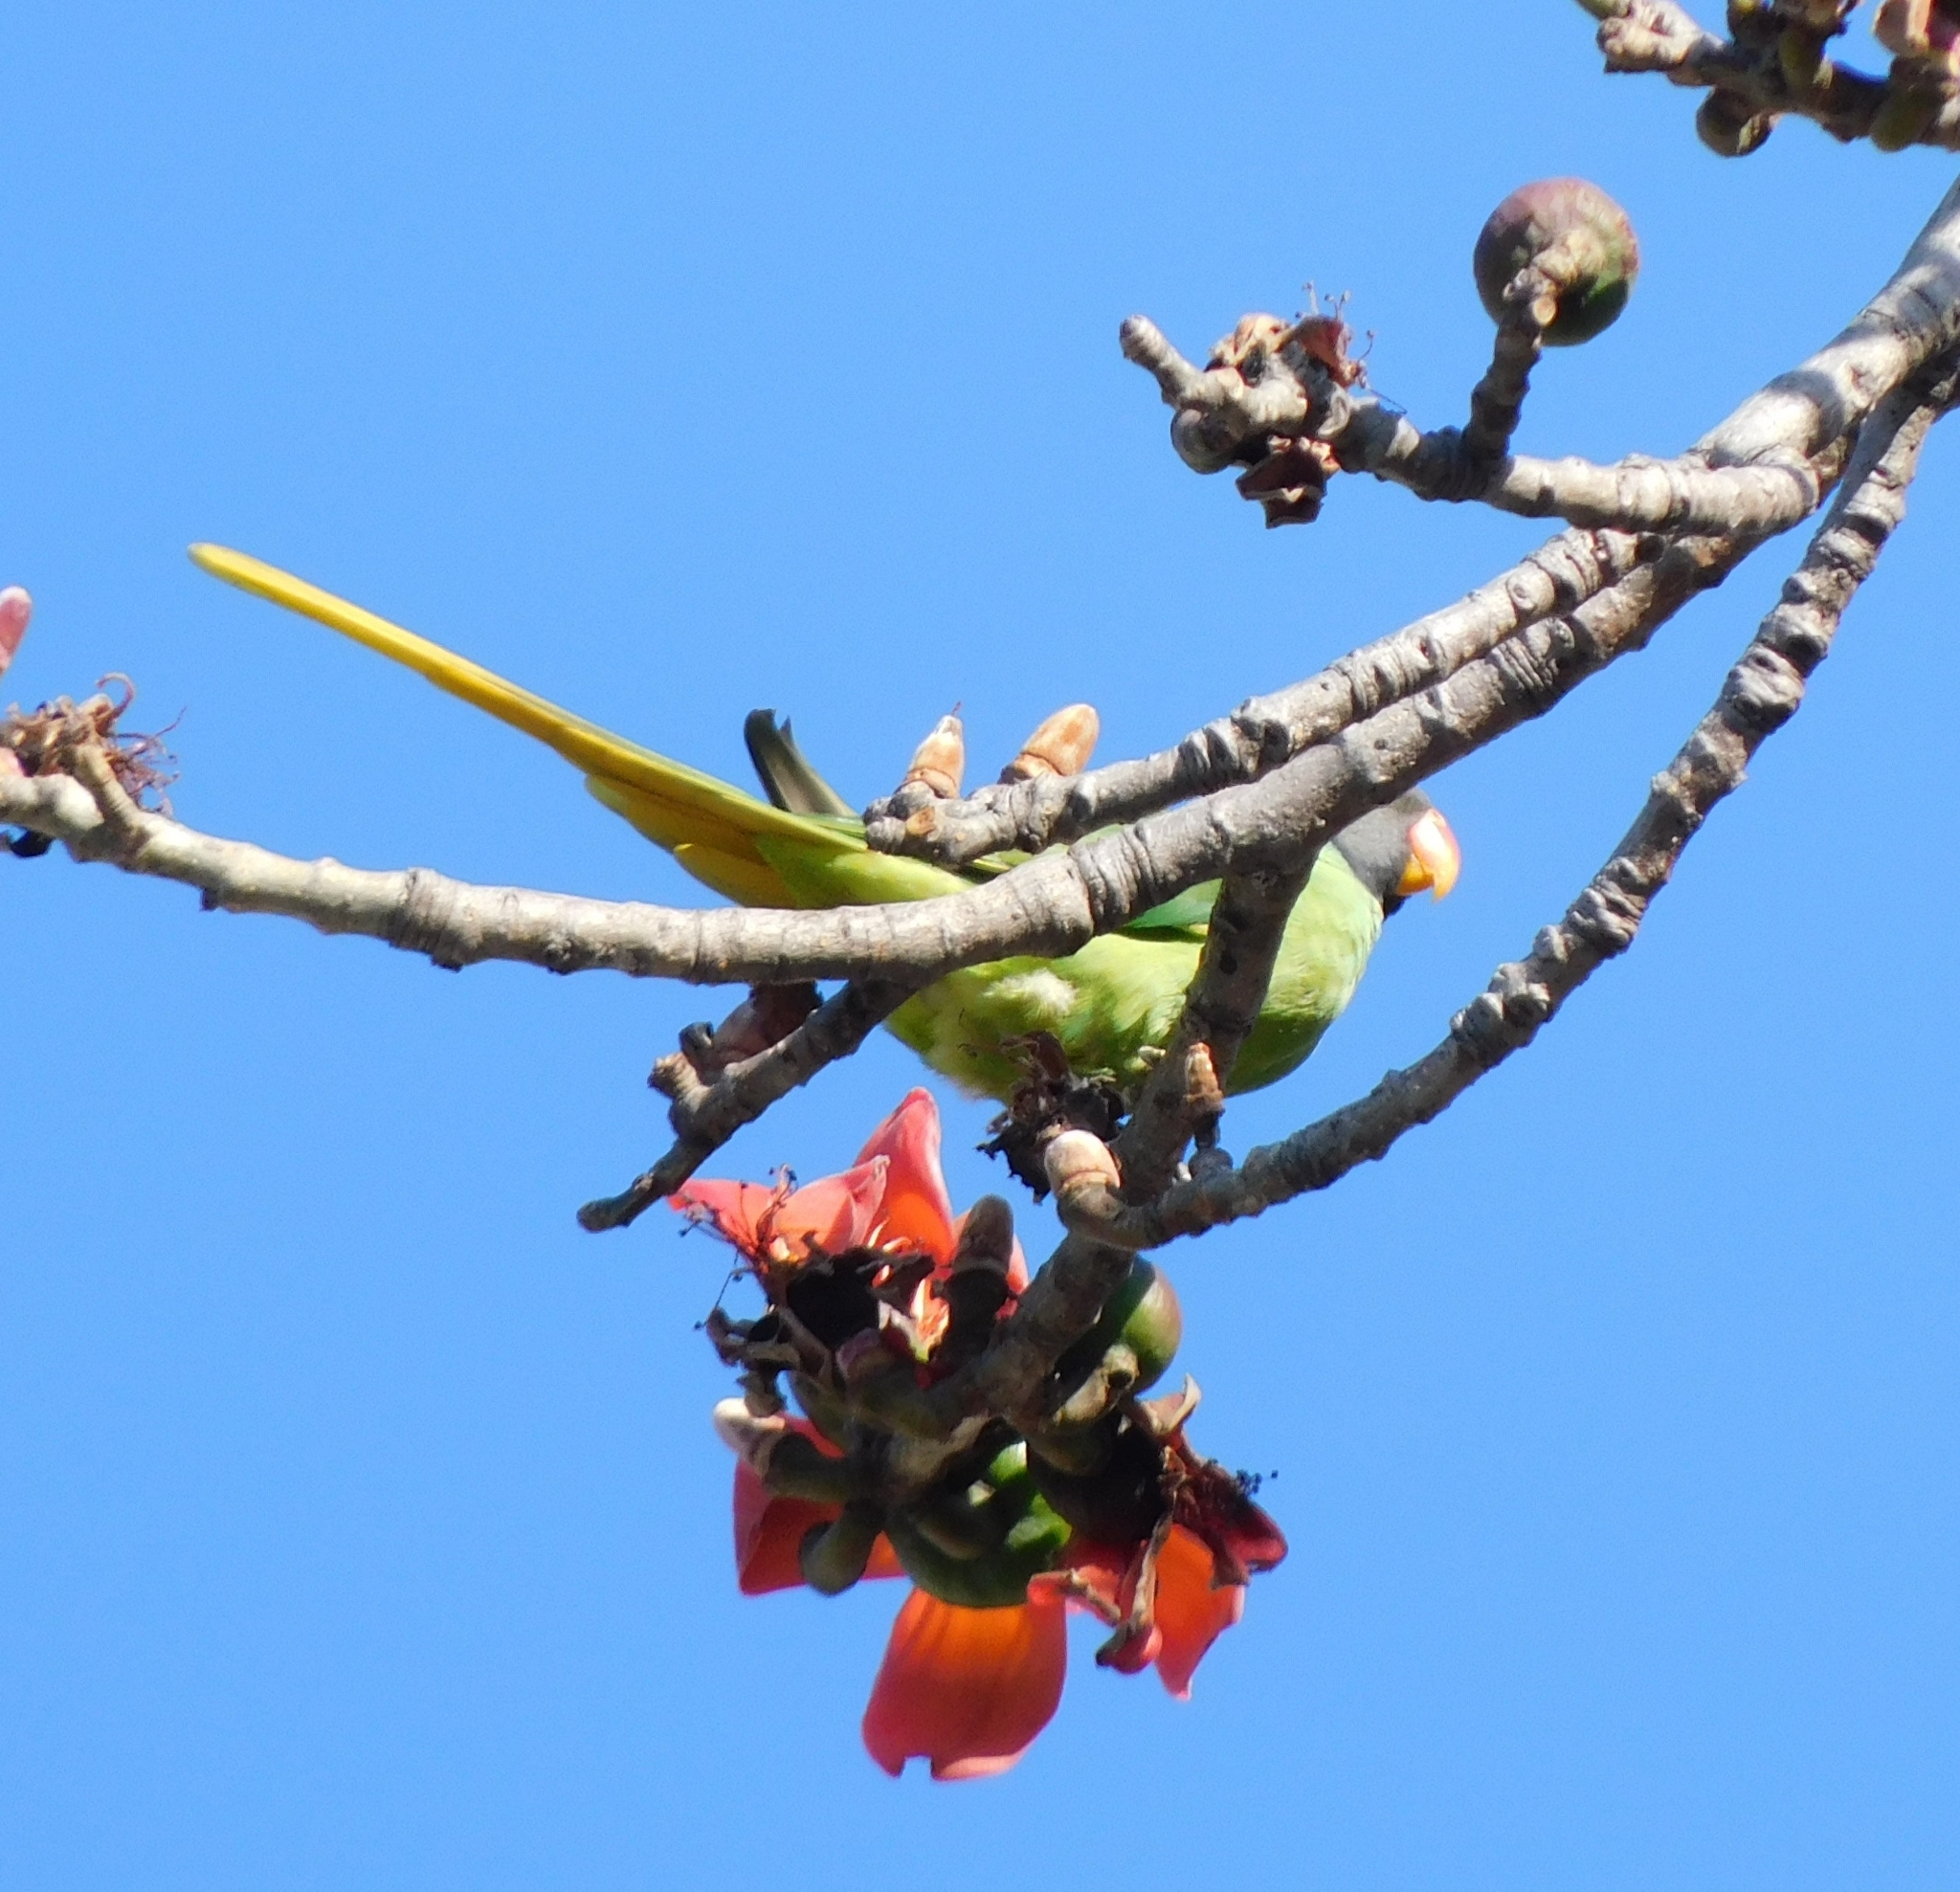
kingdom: Animalia
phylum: Chordata
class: Aves
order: Psittaciformes
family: Psittacidae
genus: Psittacula
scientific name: Psittacula himalayana
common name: Slaty-headed parakeet
